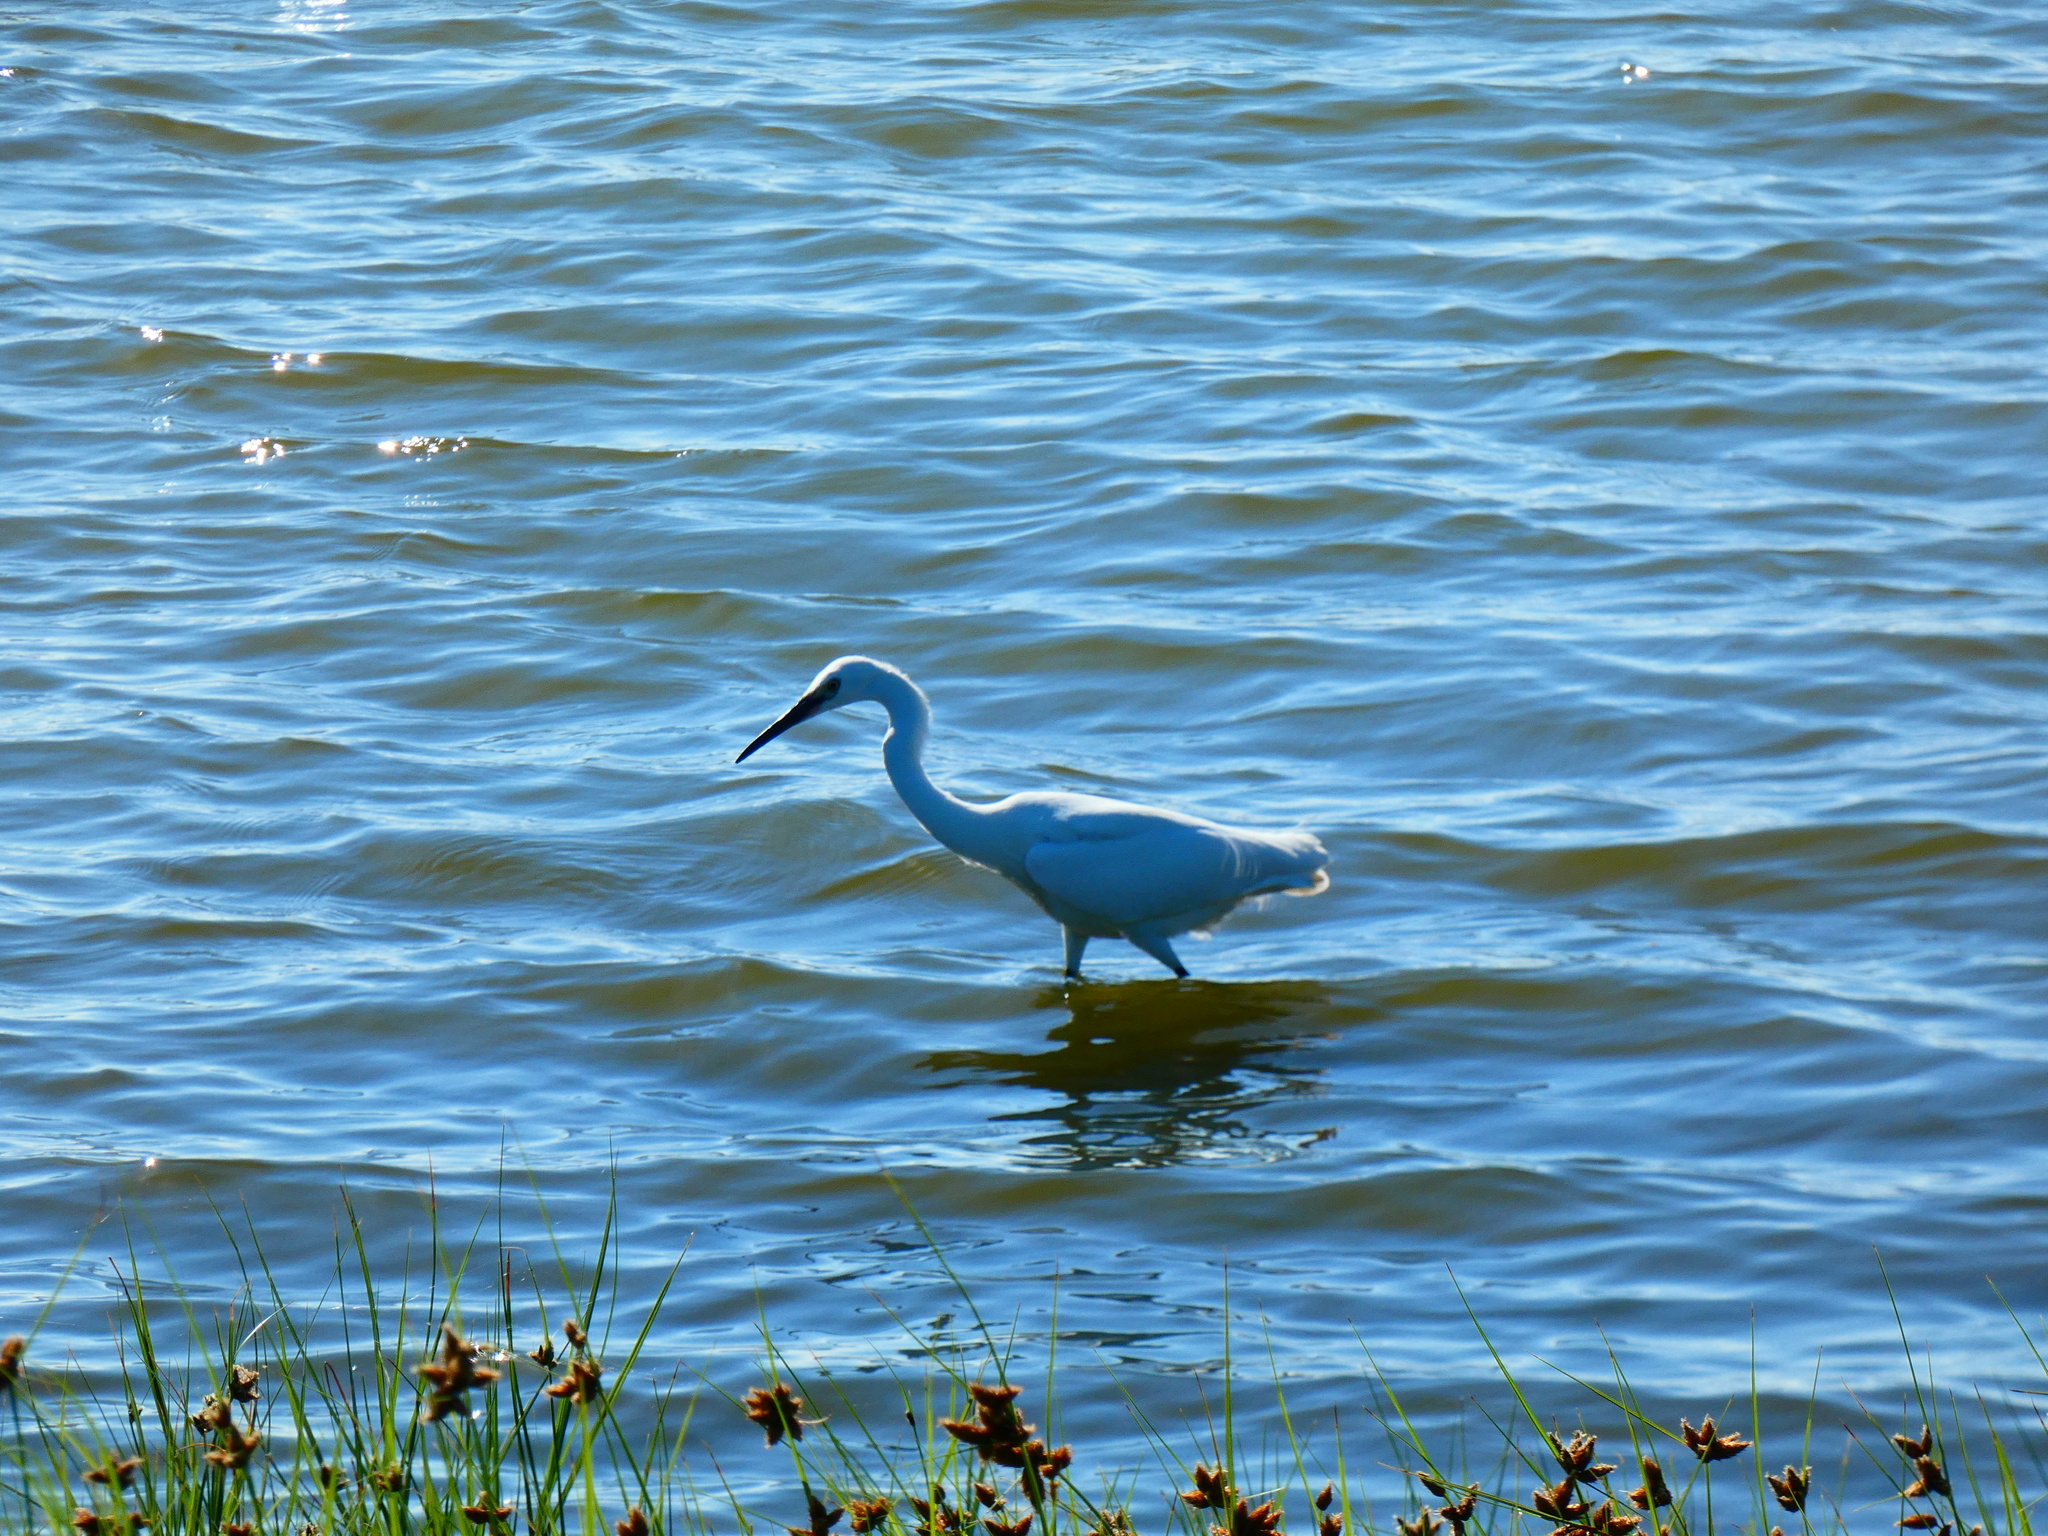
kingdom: Animalia
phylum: Chordata
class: Aves
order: Pelecaniformes
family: Ardeidae
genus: Egretta
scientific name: Egretta garzetta
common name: Little egret
